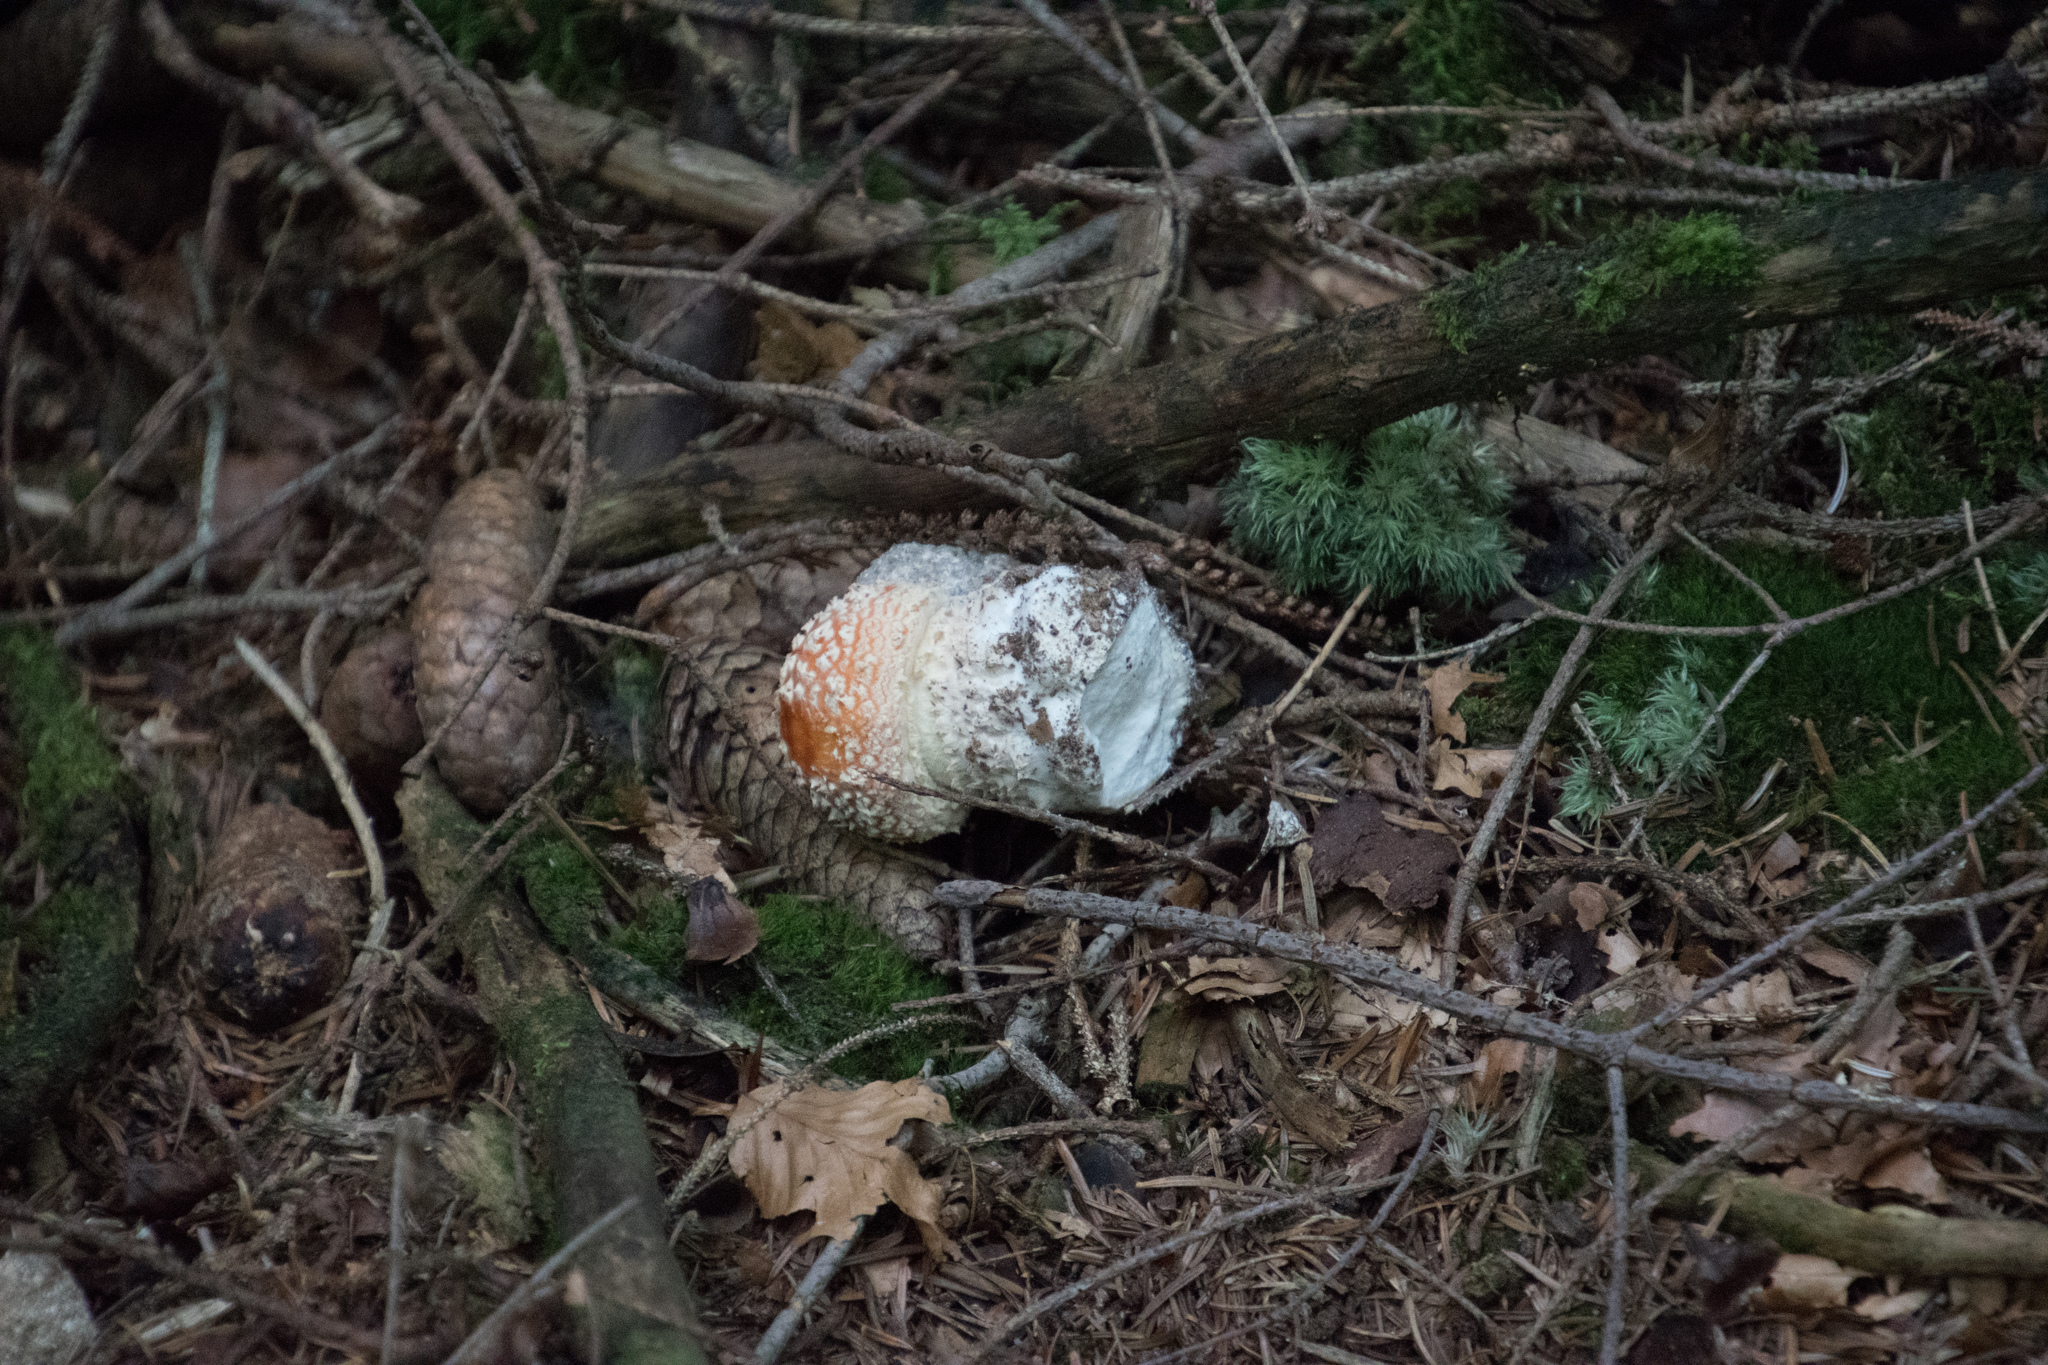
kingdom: Fungi
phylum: Basidiomycota
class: Agaricomycetes
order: Agaricales
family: Amanitaceae
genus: Amanita
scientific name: Amanita muscaria
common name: Fly agaric
